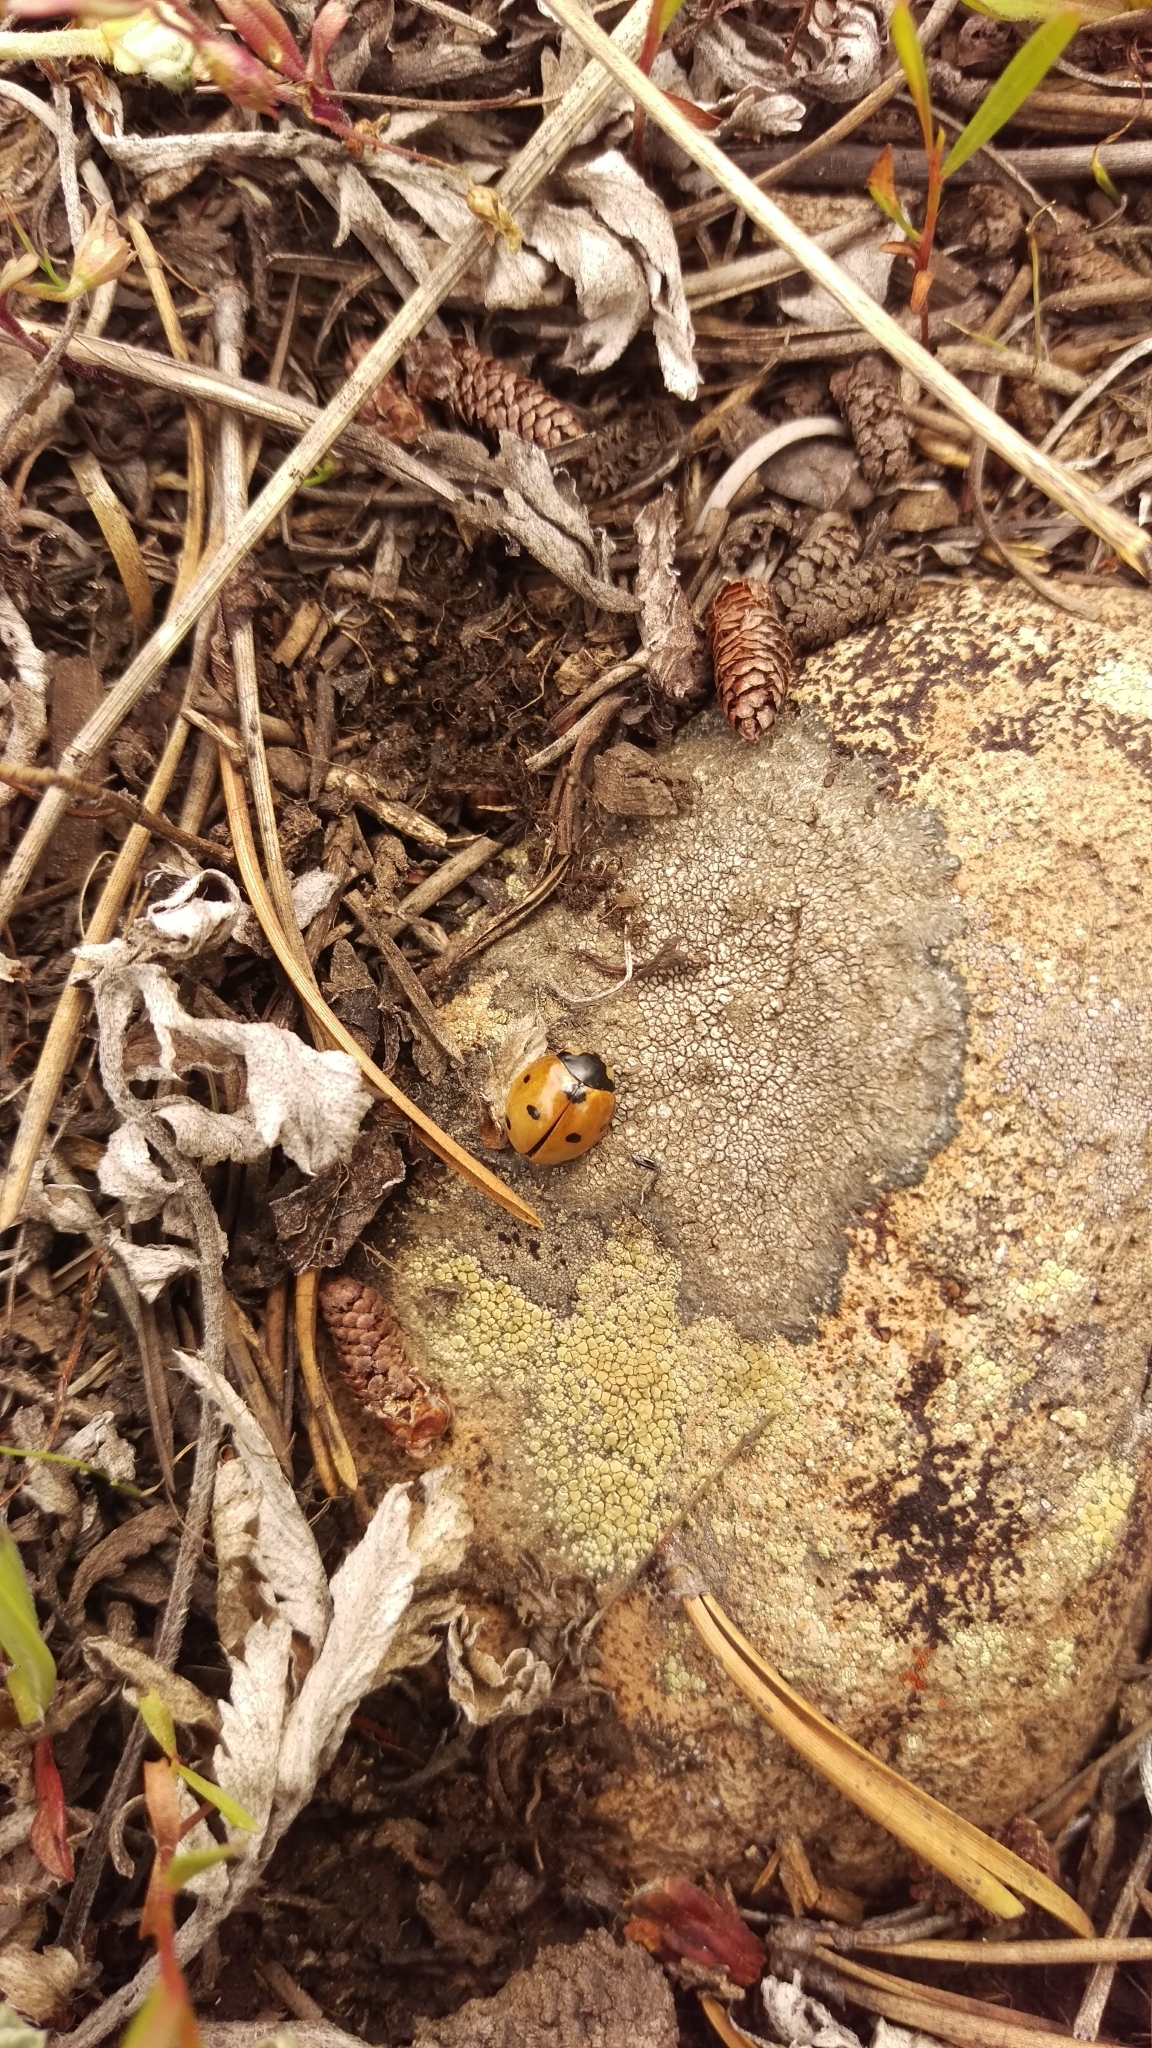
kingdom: Animalia
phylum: Arthropoda
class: Insecta
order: Coleoptera
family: Coccinellidae
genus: Coccinella
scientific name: Coccinella septempunctata
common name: Sevenspotted lady beetle
